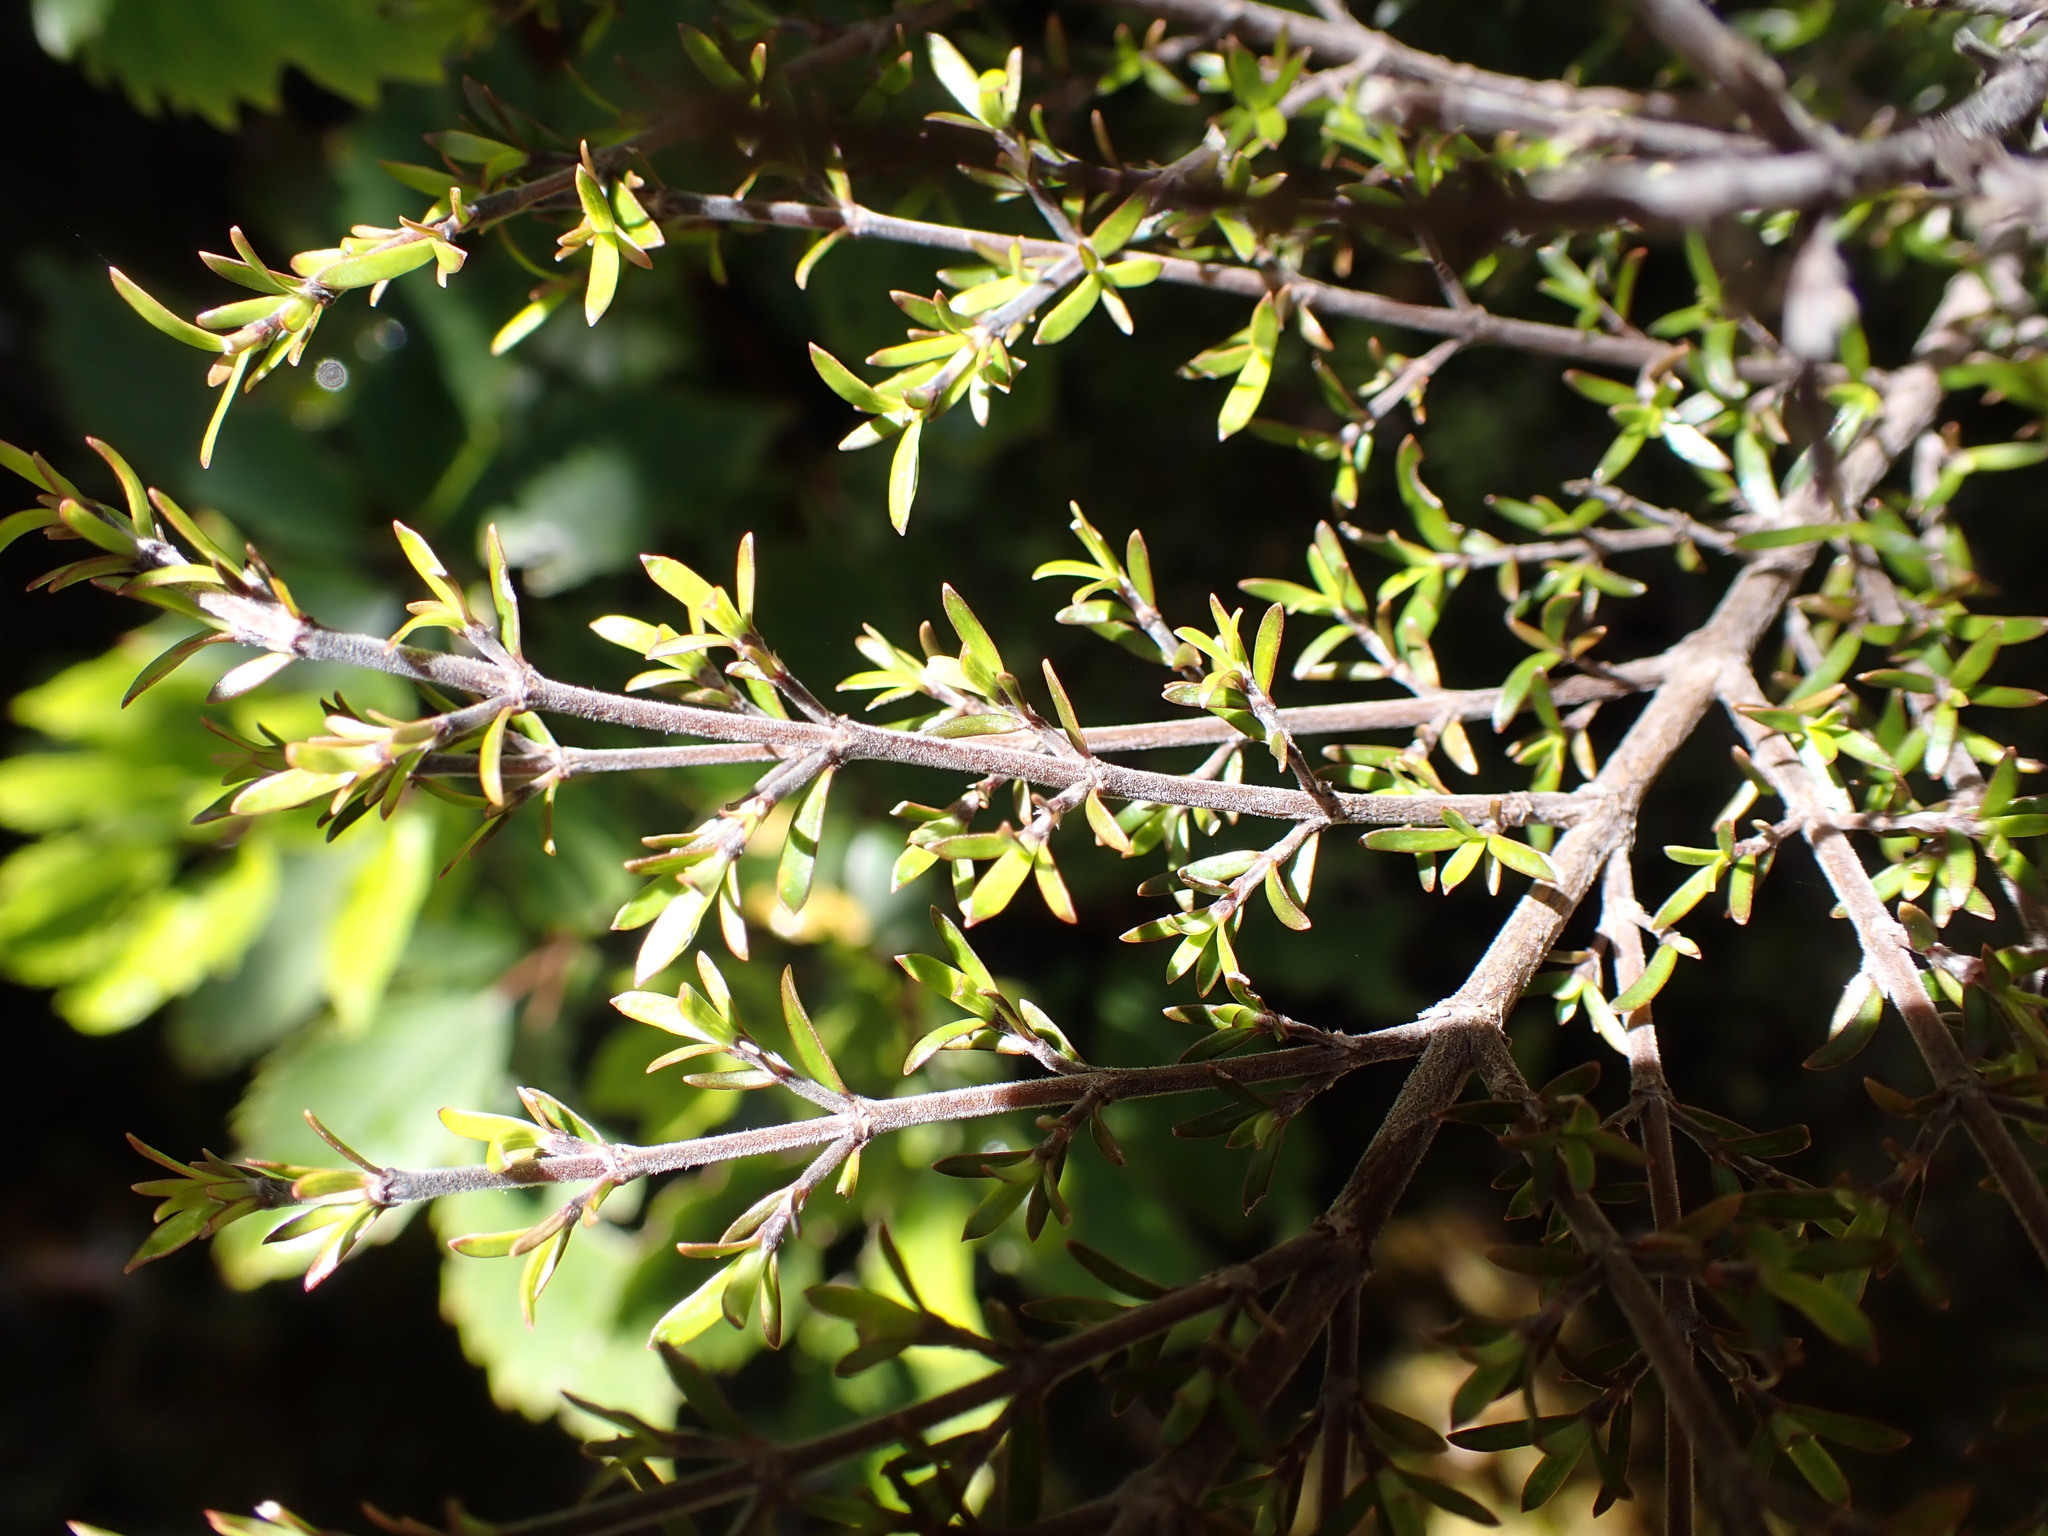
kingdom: Plantae
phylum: Tracheophyta
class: Magnoliopsida
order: Gentianales
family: Rubiaceae
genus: Coprosma
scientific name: Coprosma microcarpa
